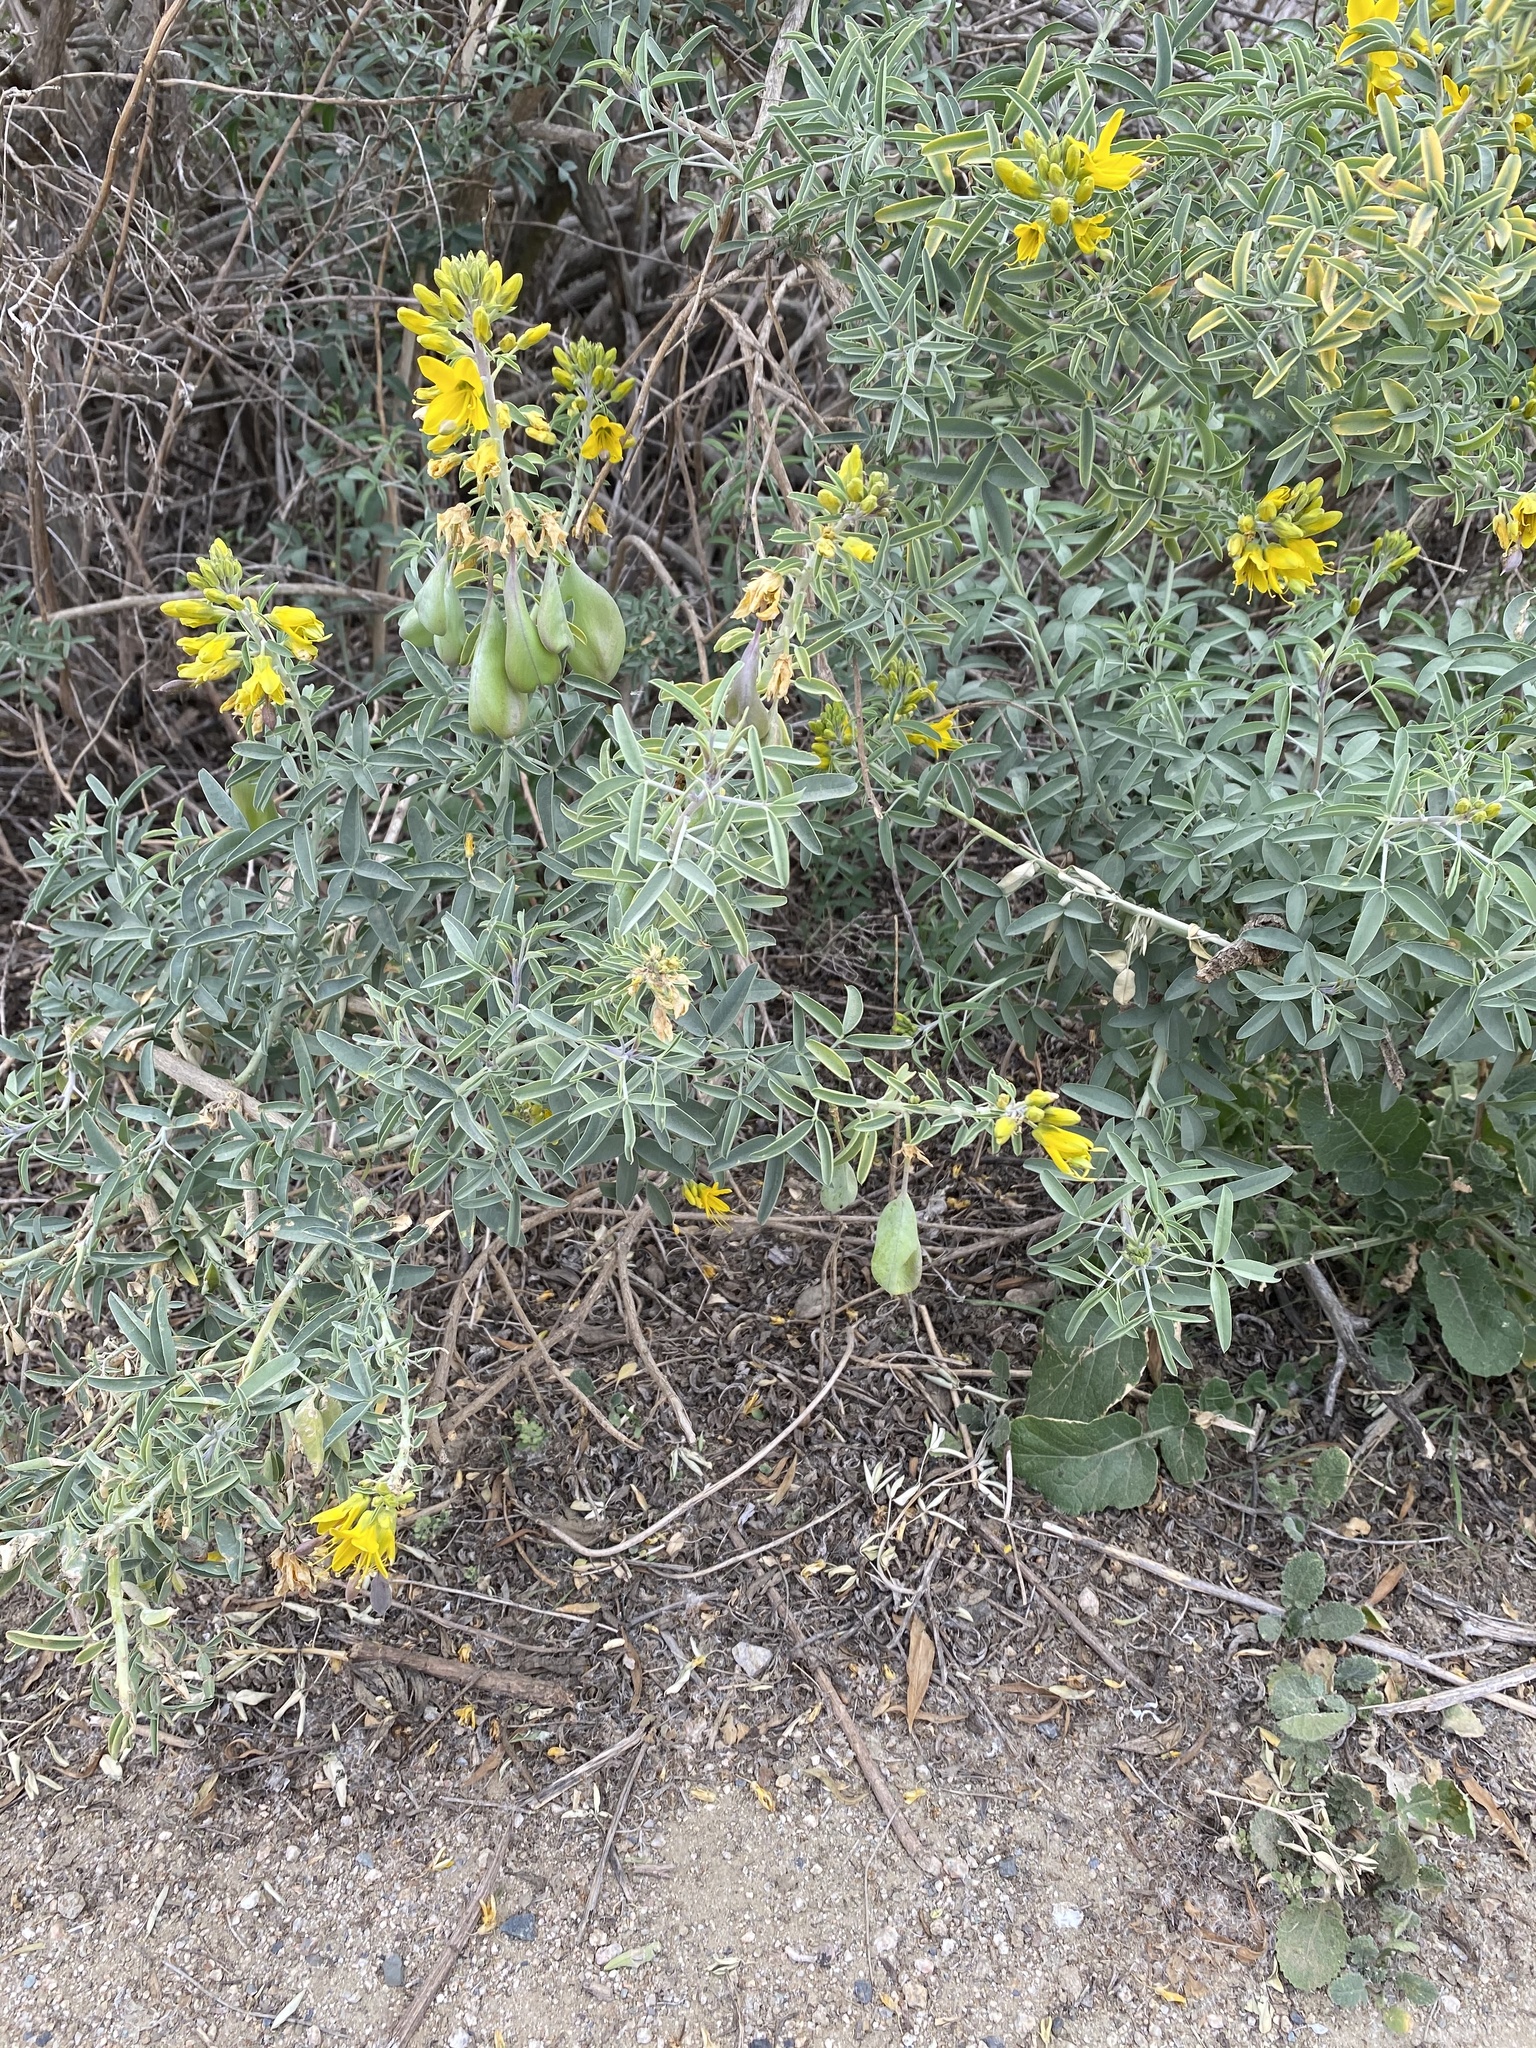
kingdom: Plantae
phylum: Tracheophyta
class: Magnoliopsida
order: Brassicales
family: Cleomaceae
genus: Cleomella
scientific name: Cleomella arborea
